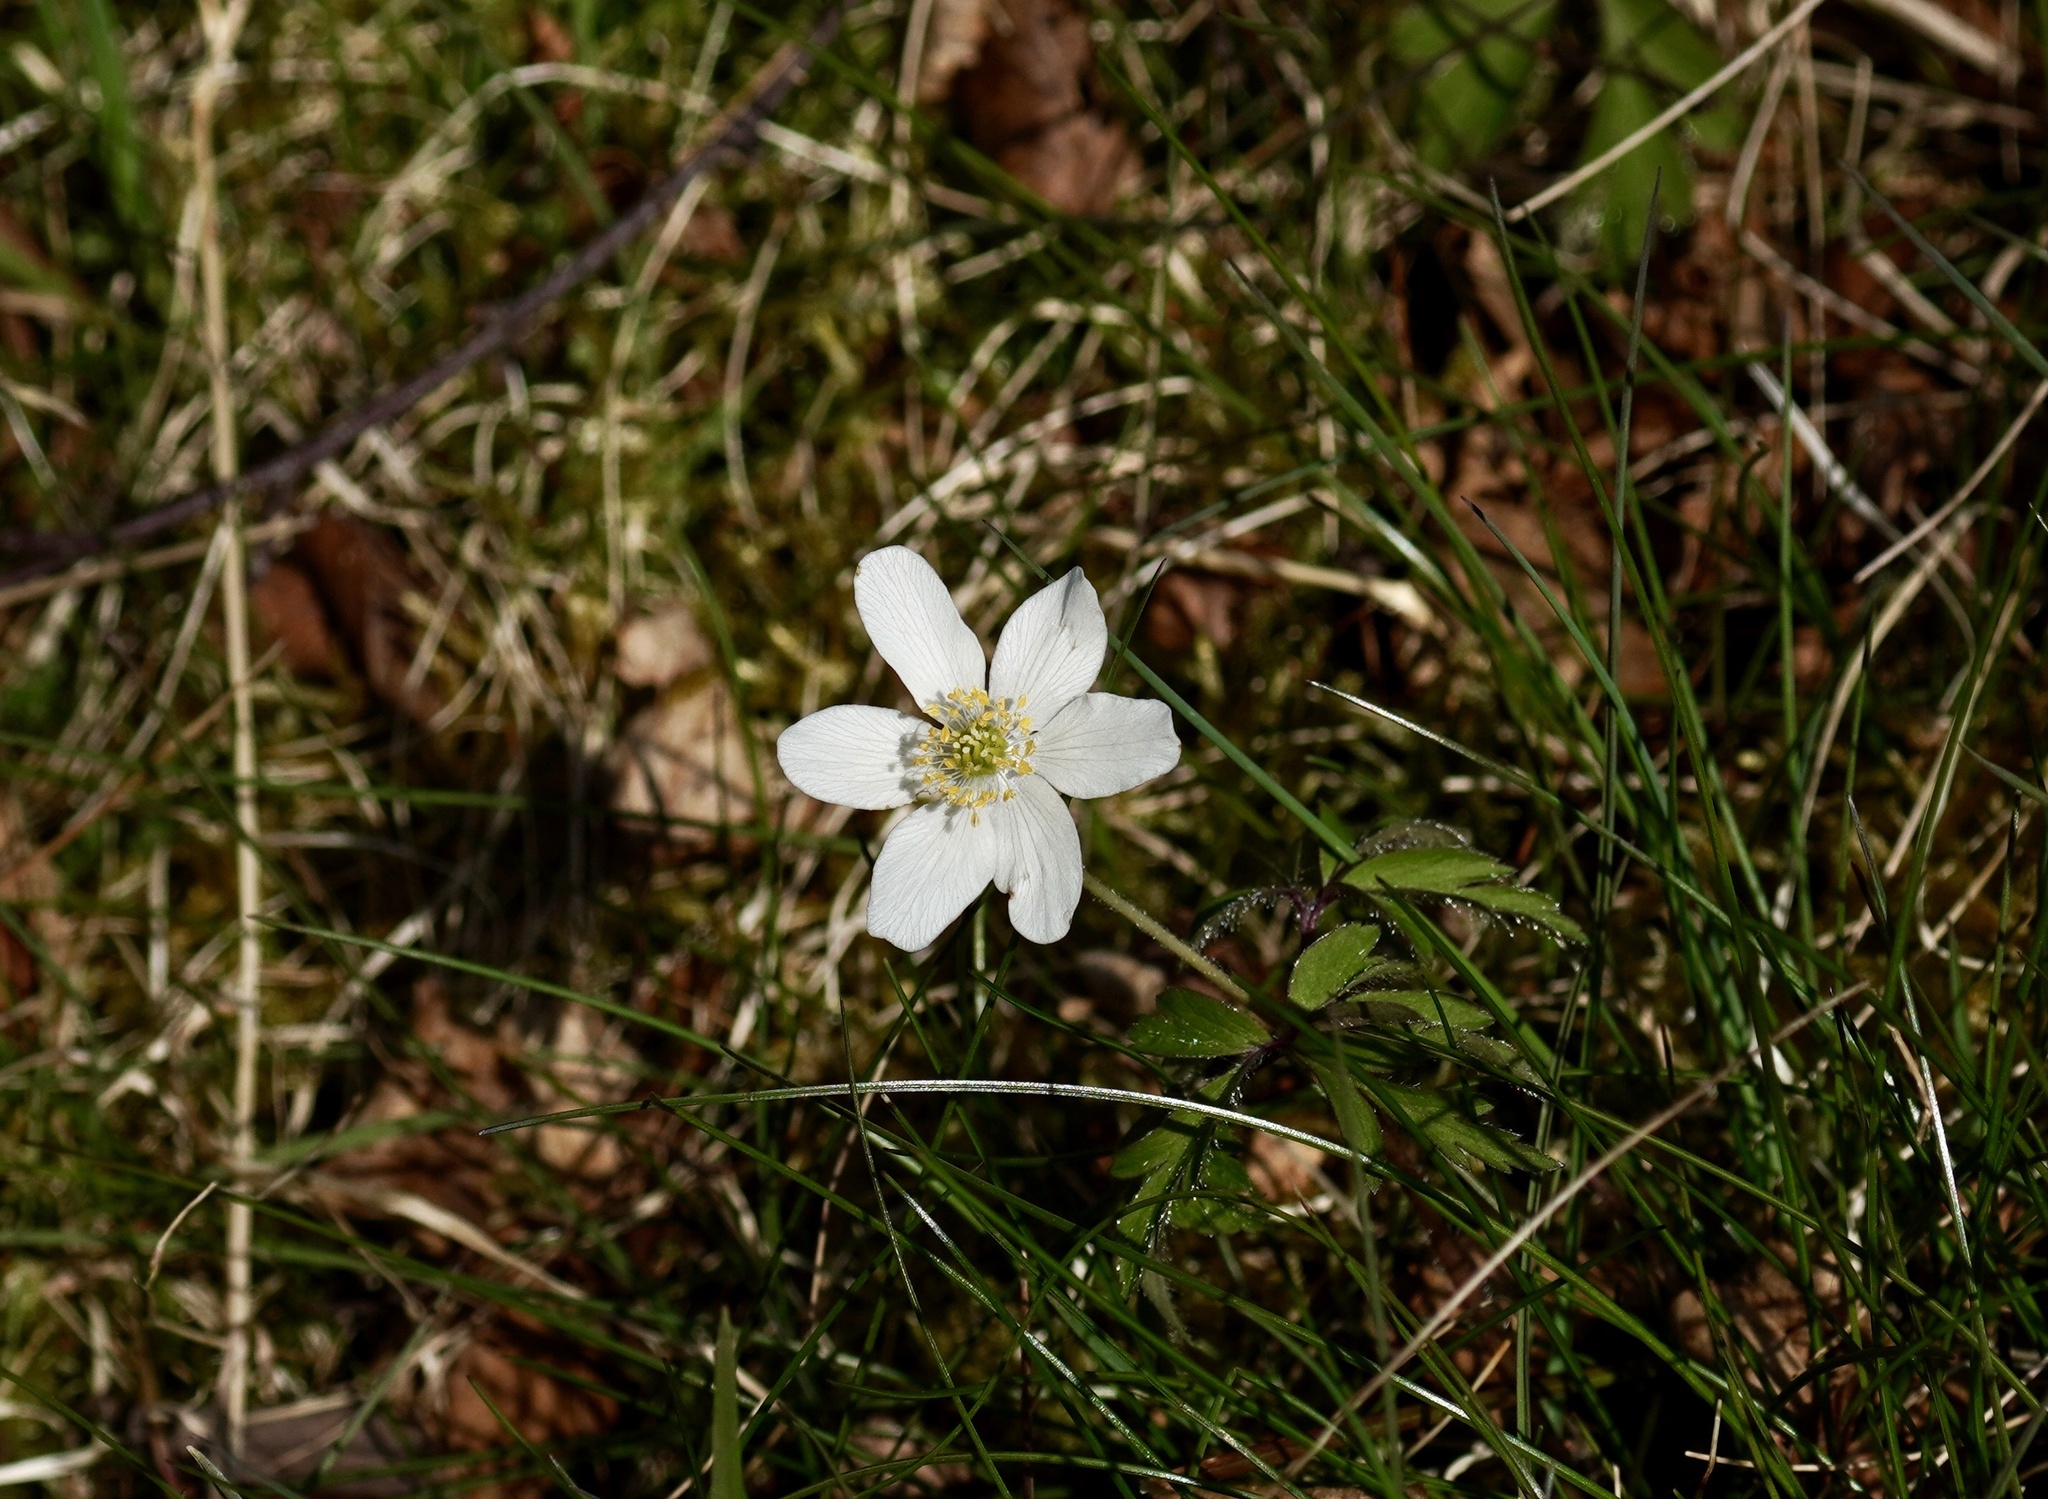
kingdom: Plantae
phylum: Tracheophyta
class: Magnoliopsida
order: Ranunculales
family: Ranunculaceae
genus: Anemone
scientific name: Anemone nemorosa
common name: Wood anemone
